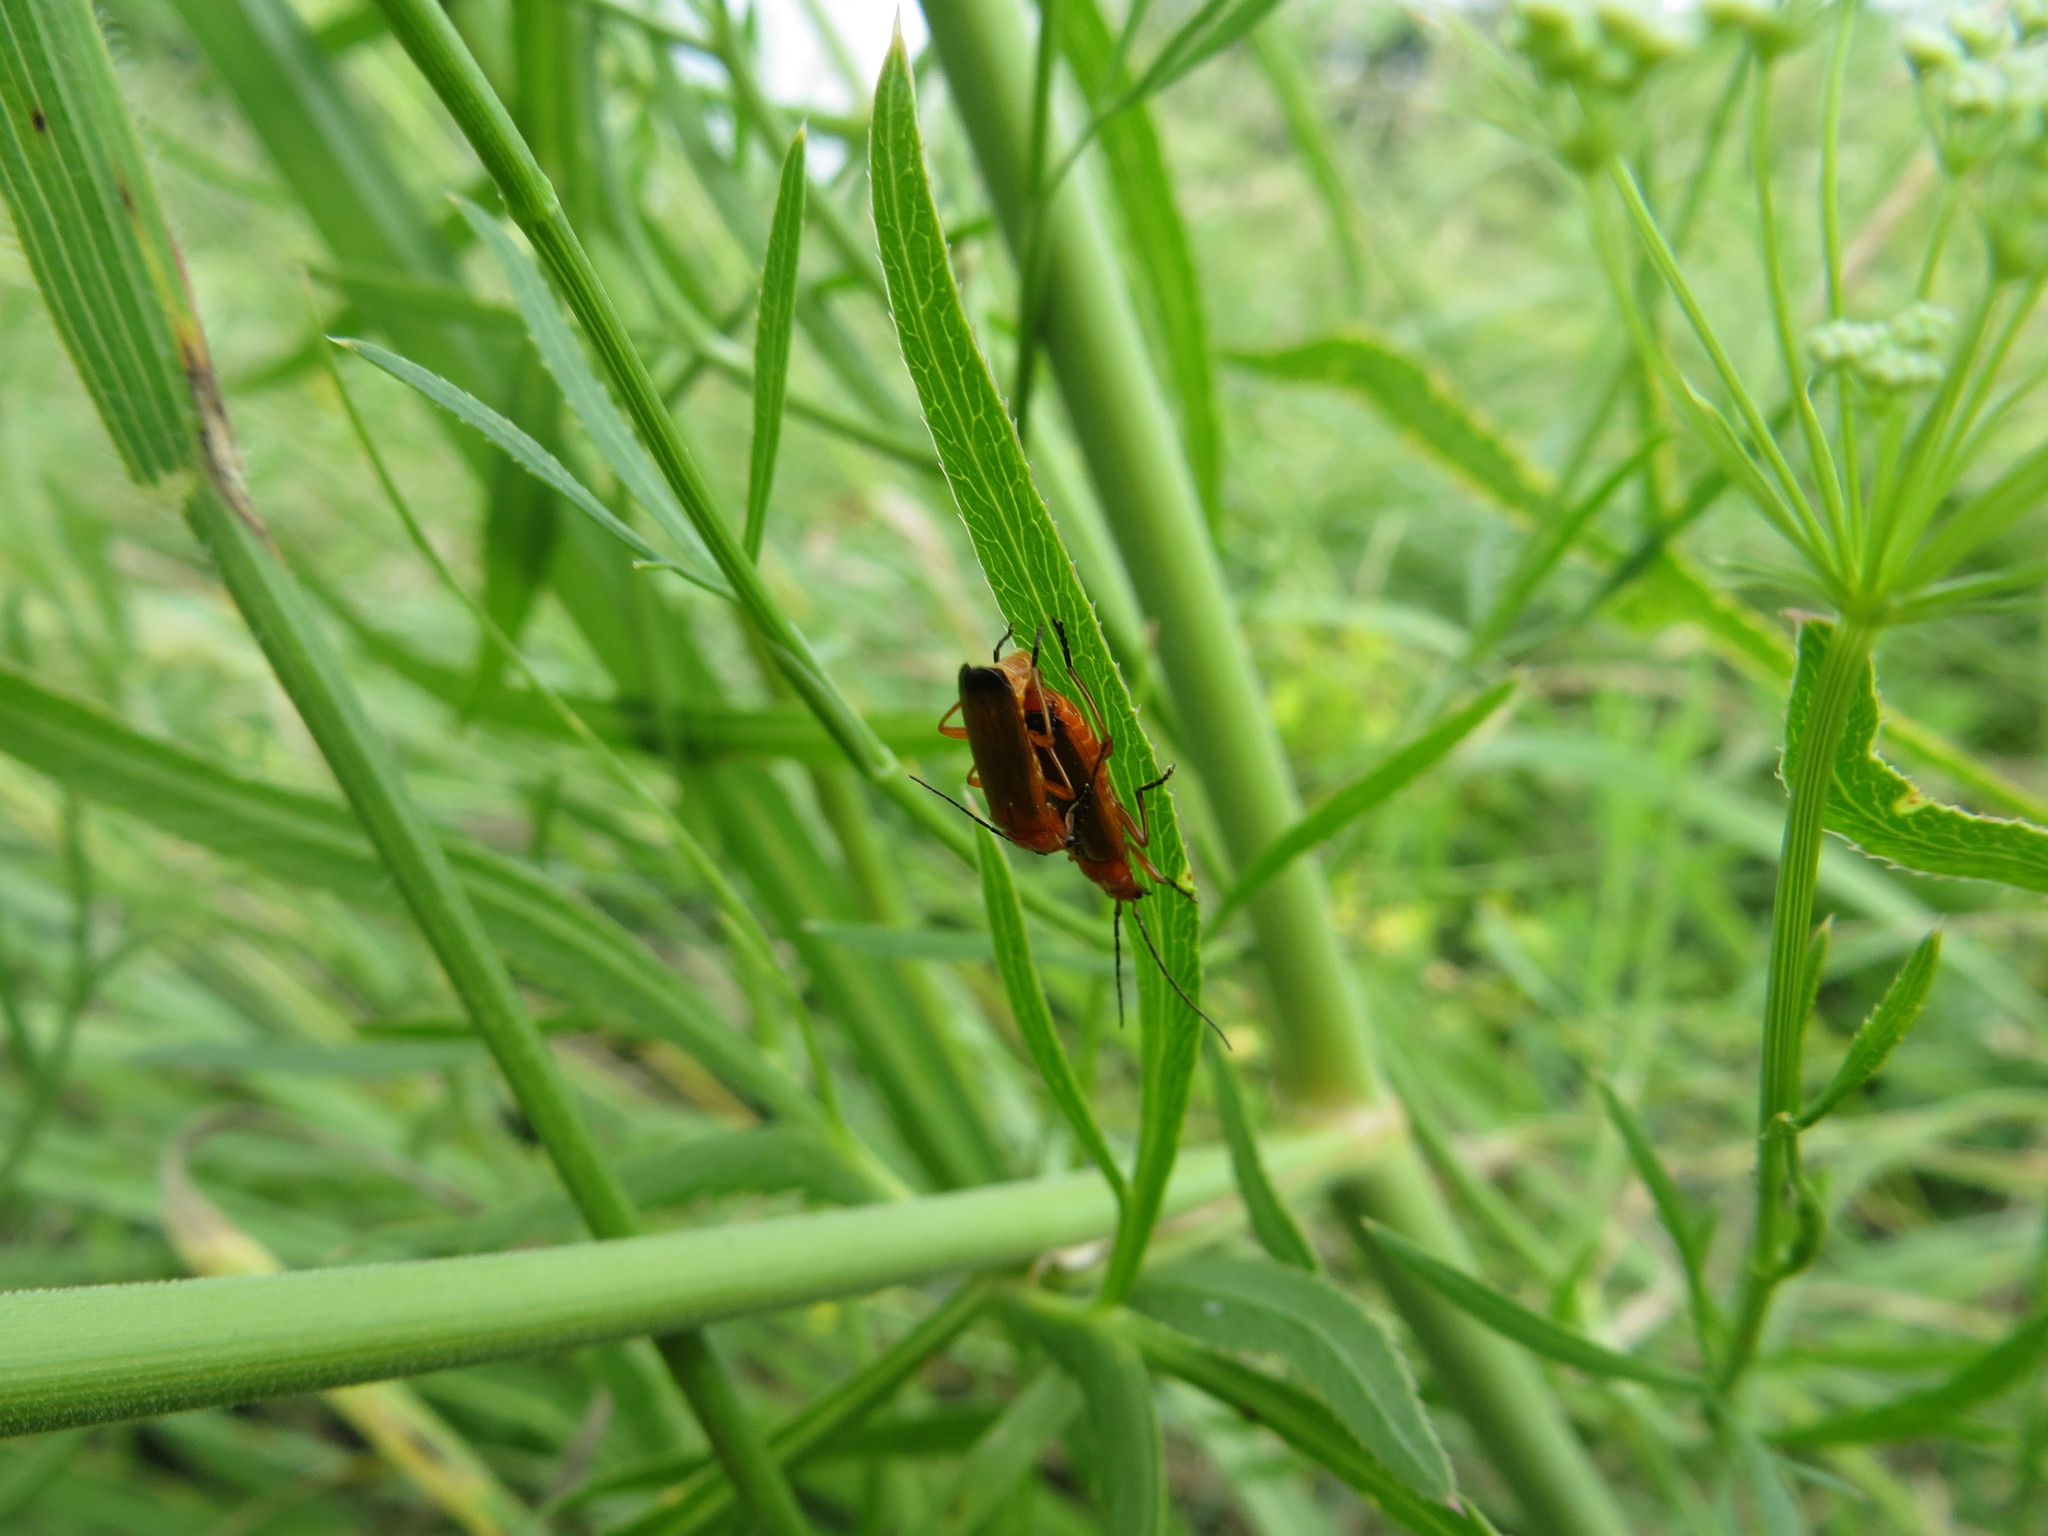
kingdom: Animalia
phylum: Arthropoda
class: Insecta
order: Coleoptera
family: Cantharidae
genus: Rhagonycha
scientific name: Rhagonycha fulva
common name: Common red soldier beetle
